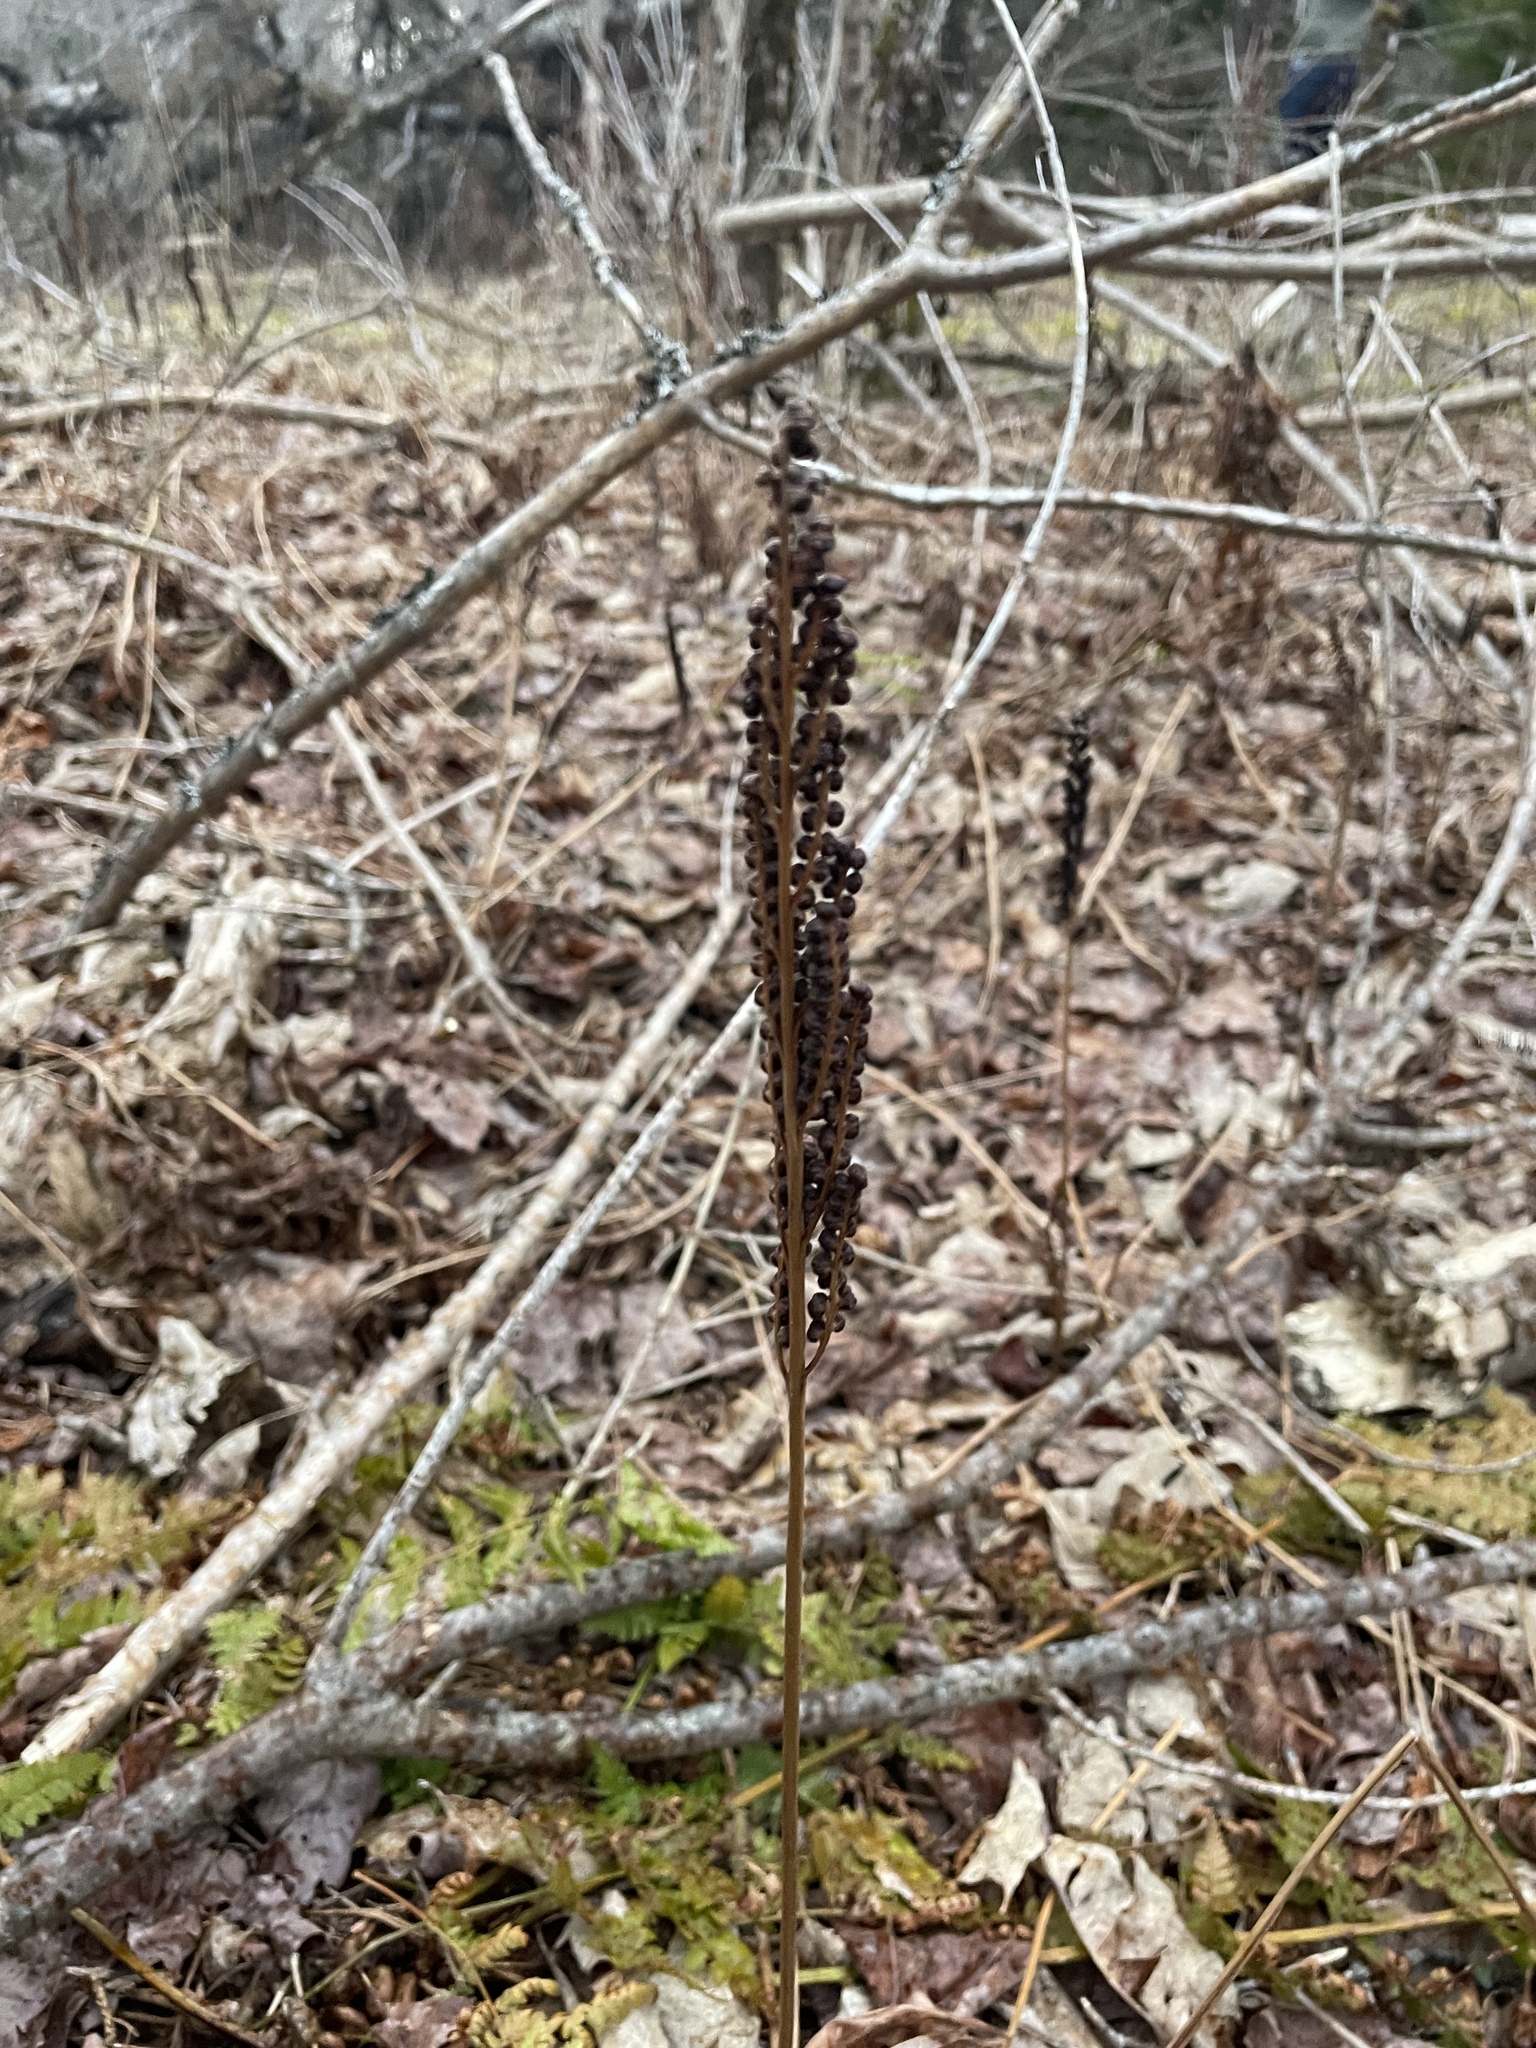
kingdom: Plantae
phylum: Tracheophyta
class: Polypodiopsida
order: Polypodiales
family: Onocleaceae
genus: Onoclea
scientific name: Onoclea sensibilis
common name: Sensitive fern
